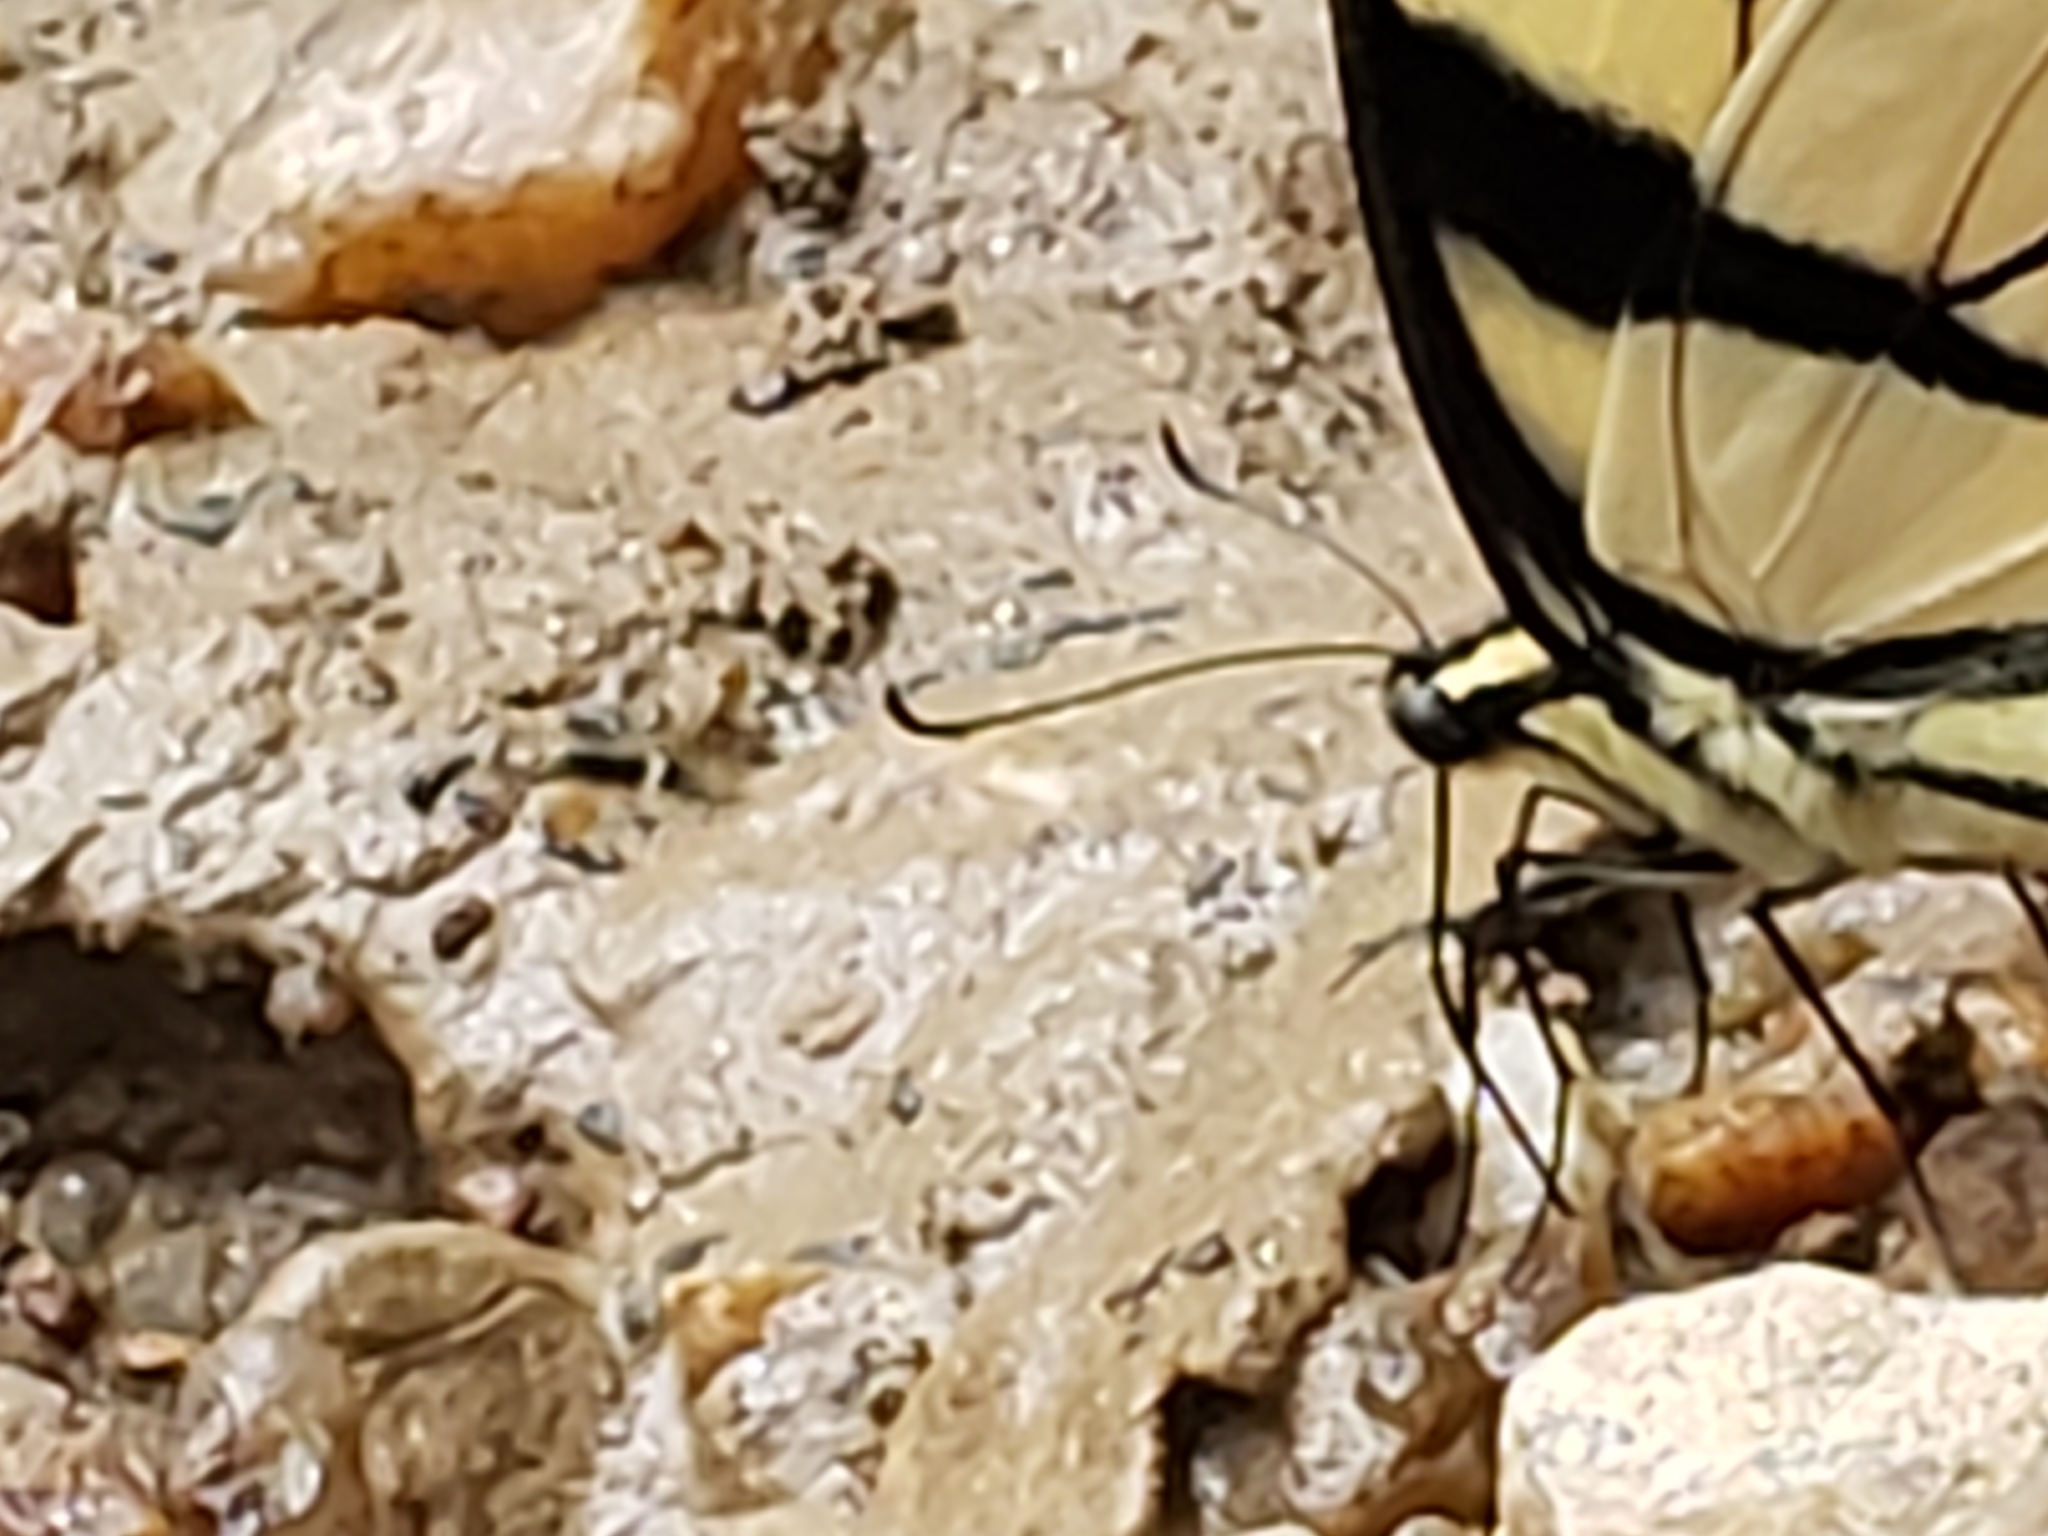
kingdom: Animalia
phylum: Arthropoda
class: Insecta
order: Lepidoptera
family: Papilionidae
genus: Papilio
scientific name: Papilio glaucus
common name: Tiger swallowtail
